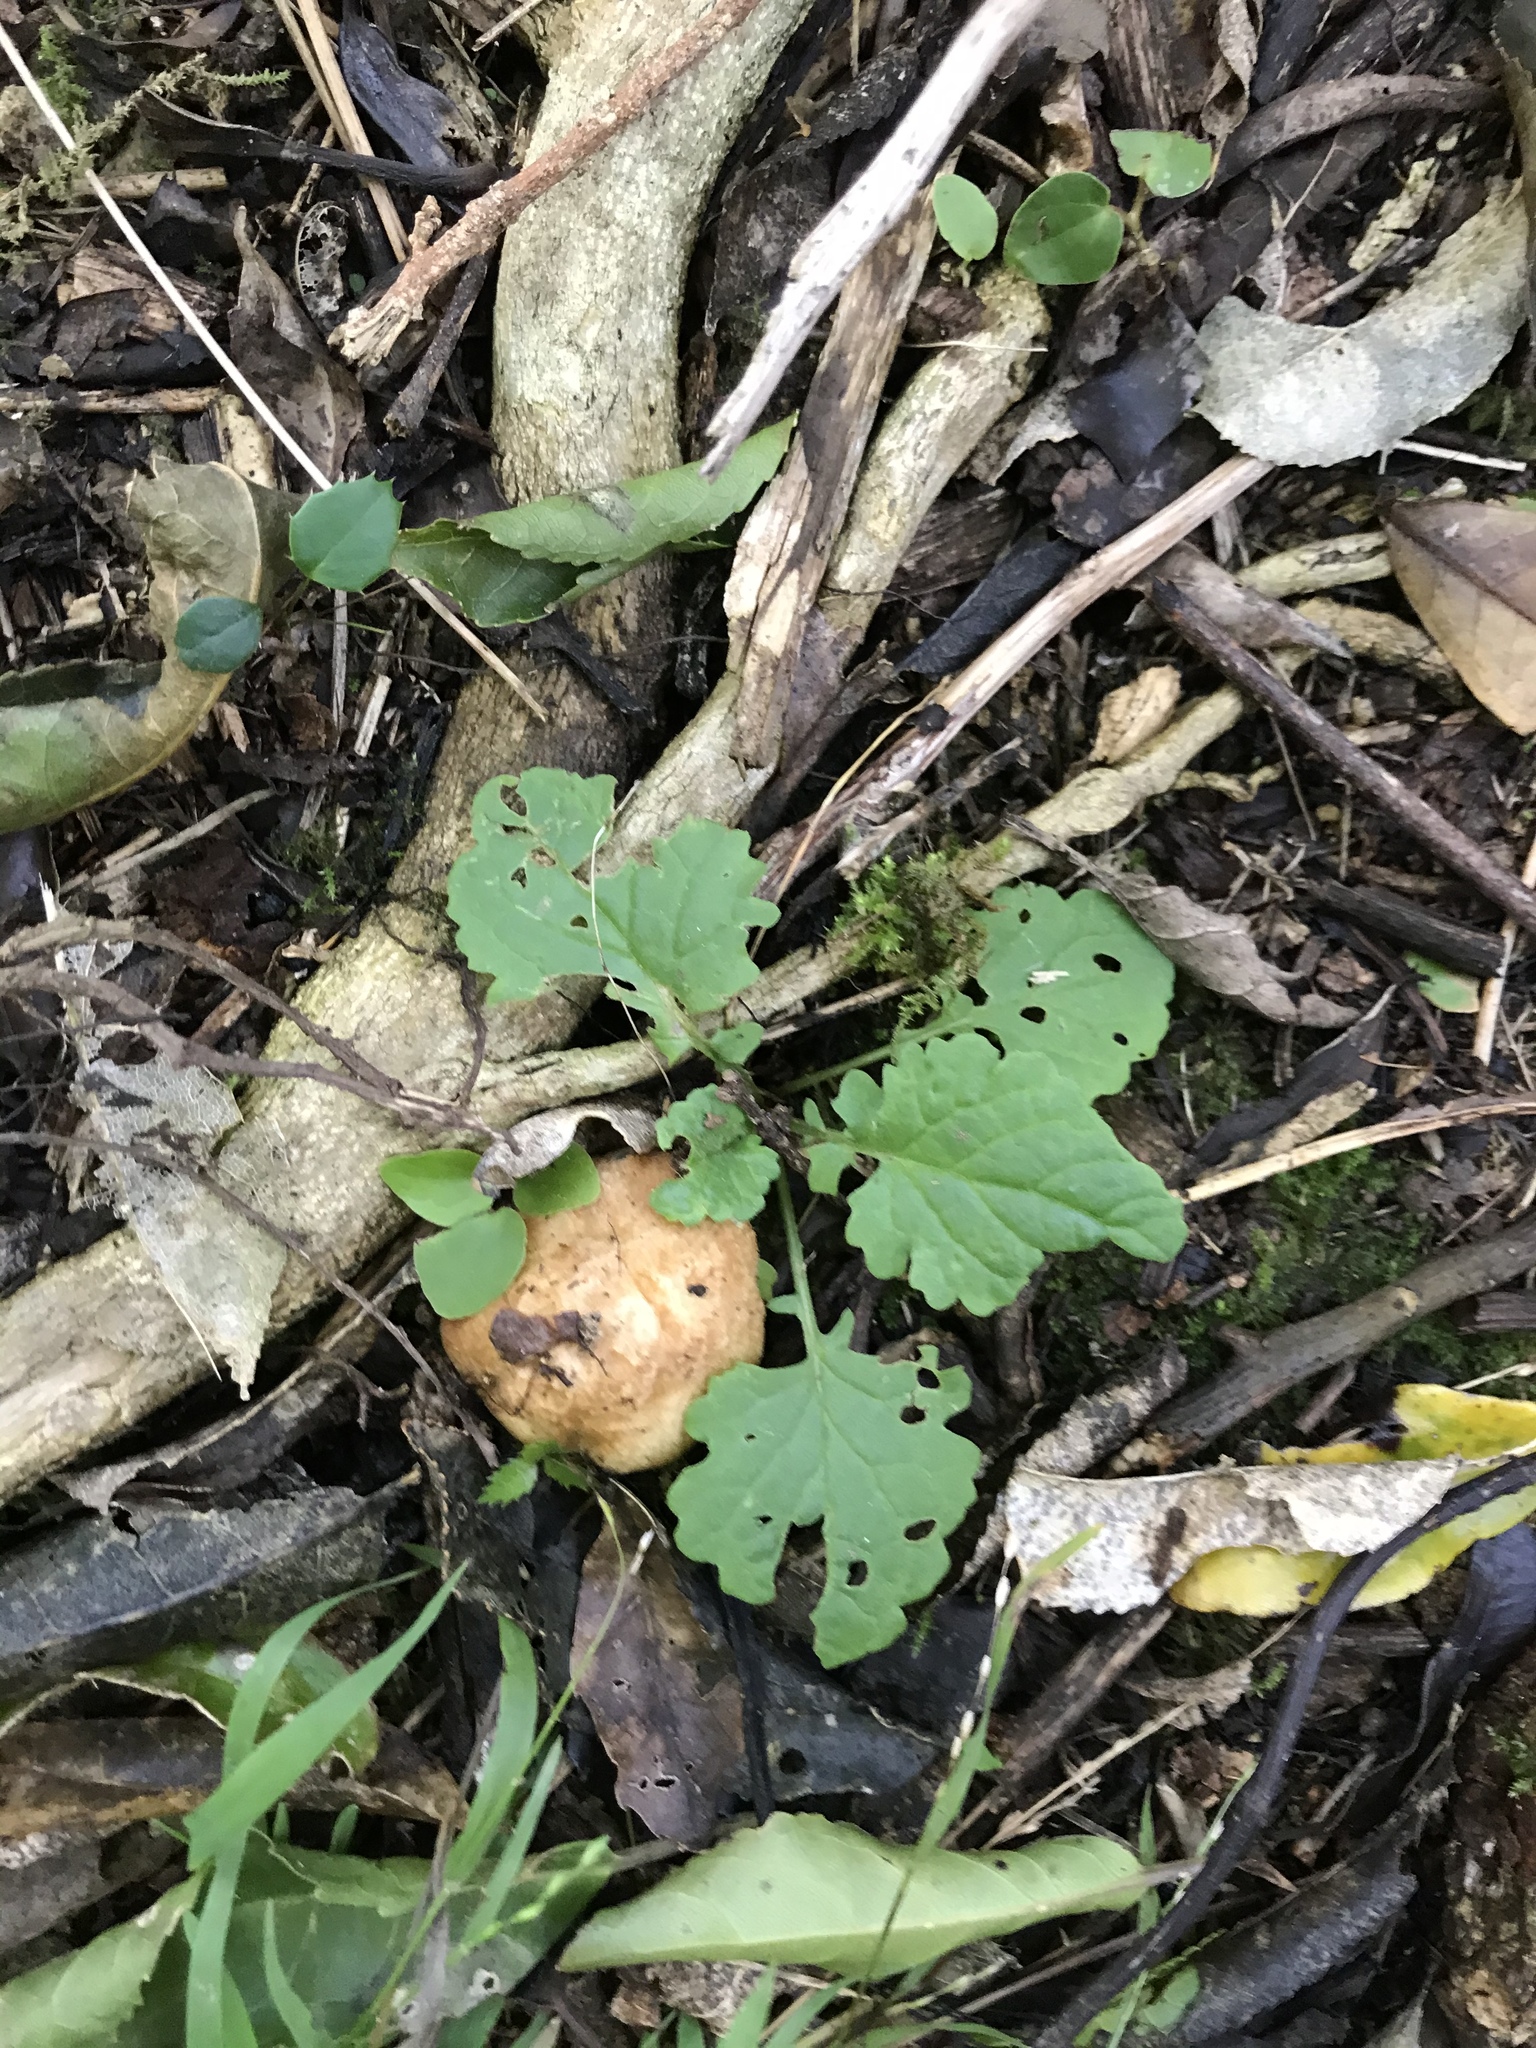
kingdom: Plantae
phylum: Tracheophyta
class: Magnoliopsida
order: Asterales
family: Asteraceae
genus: Jacobaea
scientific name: Jacobaea vulgaris
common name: Stinking willie
